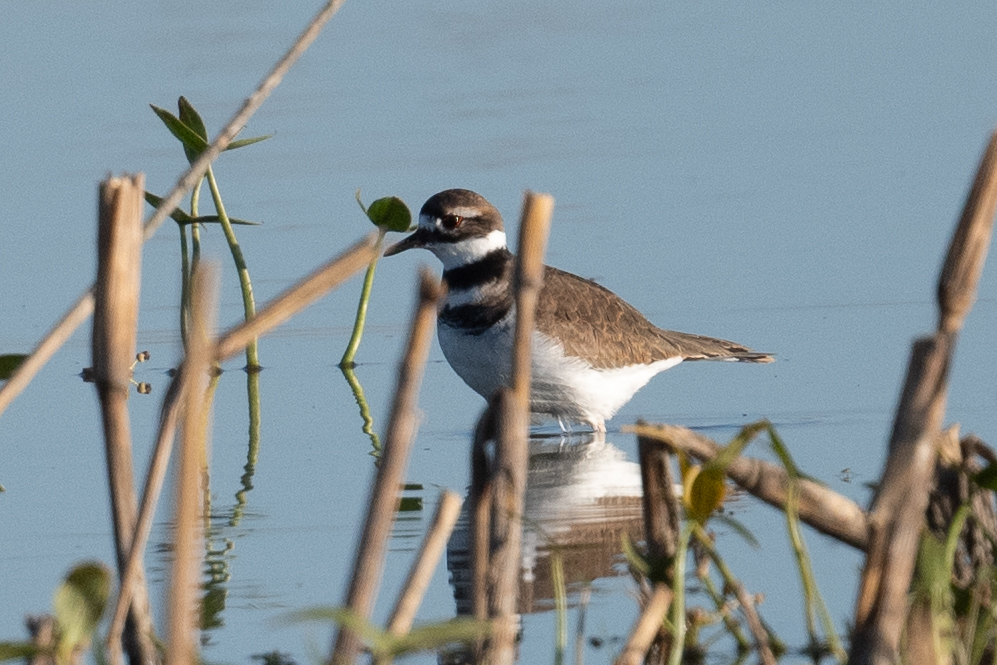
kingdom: Animalia
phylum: Chordata
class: Aves
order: Charadriiformes
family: Charadriidae
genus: Charadrius
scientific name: Charadrius vociferus
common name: Killdeer
